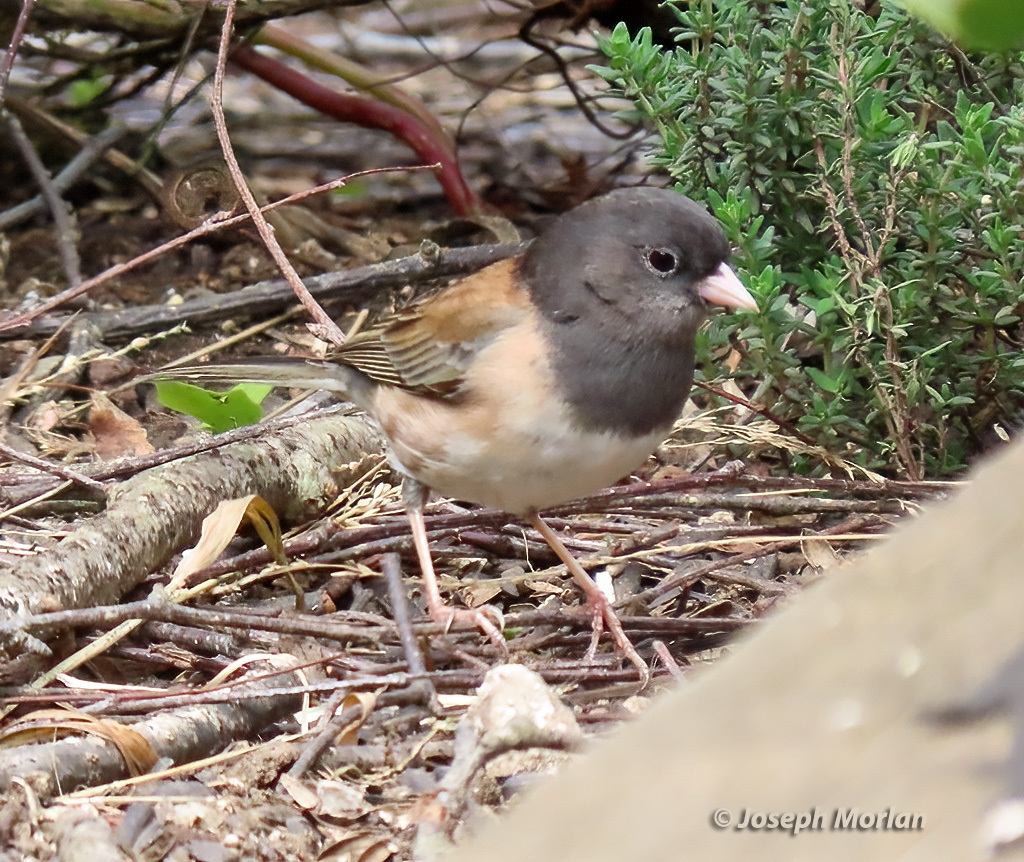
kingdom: Animalia
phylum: Chordata
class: Aves
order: Passeriformes
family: Passerellidae
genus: Junco
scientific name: Junco hyemalis
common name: Dark-eyed junco
